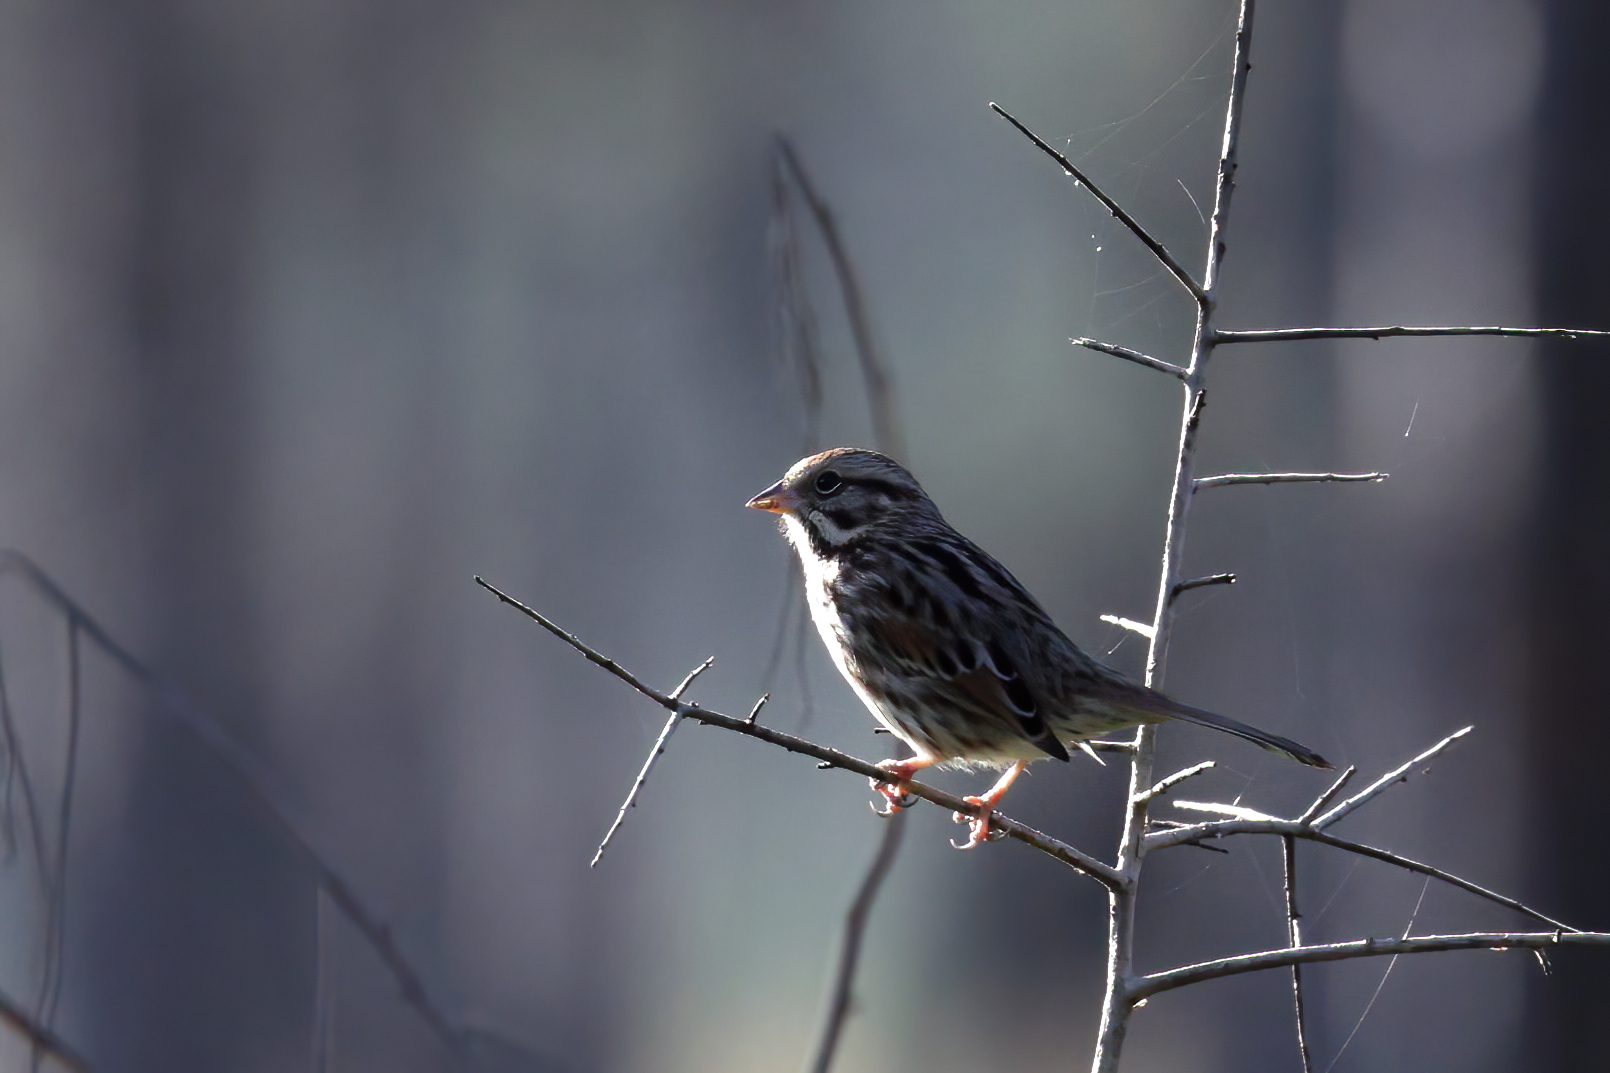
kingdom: Animalia
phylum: Chordata
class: Aves
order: Passeriformes
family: Passerellidae
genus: Melospiza
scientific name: Melospiza melodia
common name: Song sparrow
